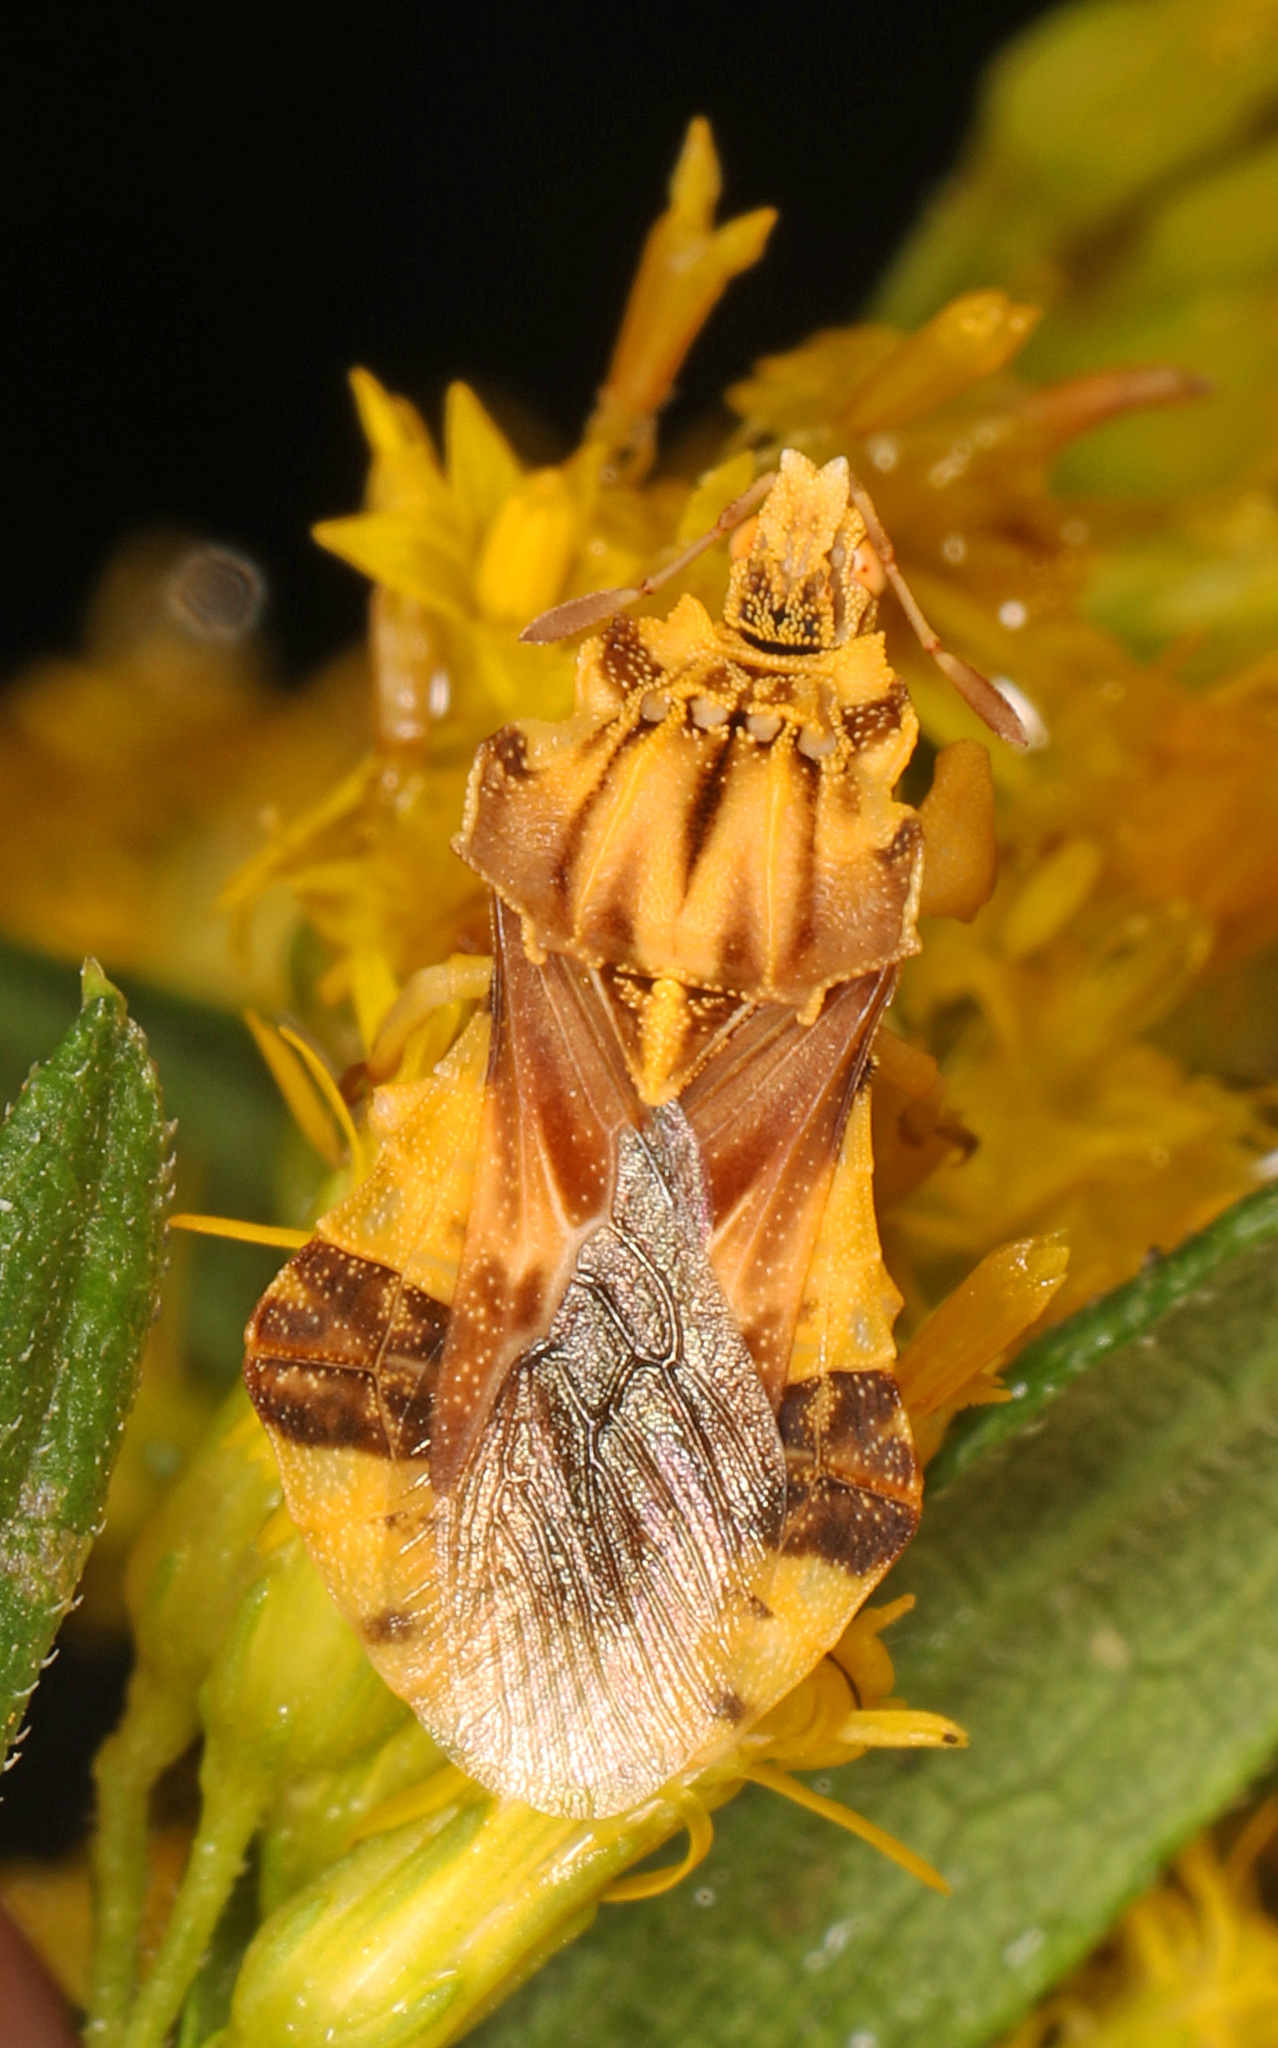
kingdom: Animalia
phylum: Arthropoda
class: Insecta
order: Hemiptera
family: Reduviidae
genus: Phymata
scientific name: Phymata fasciata
